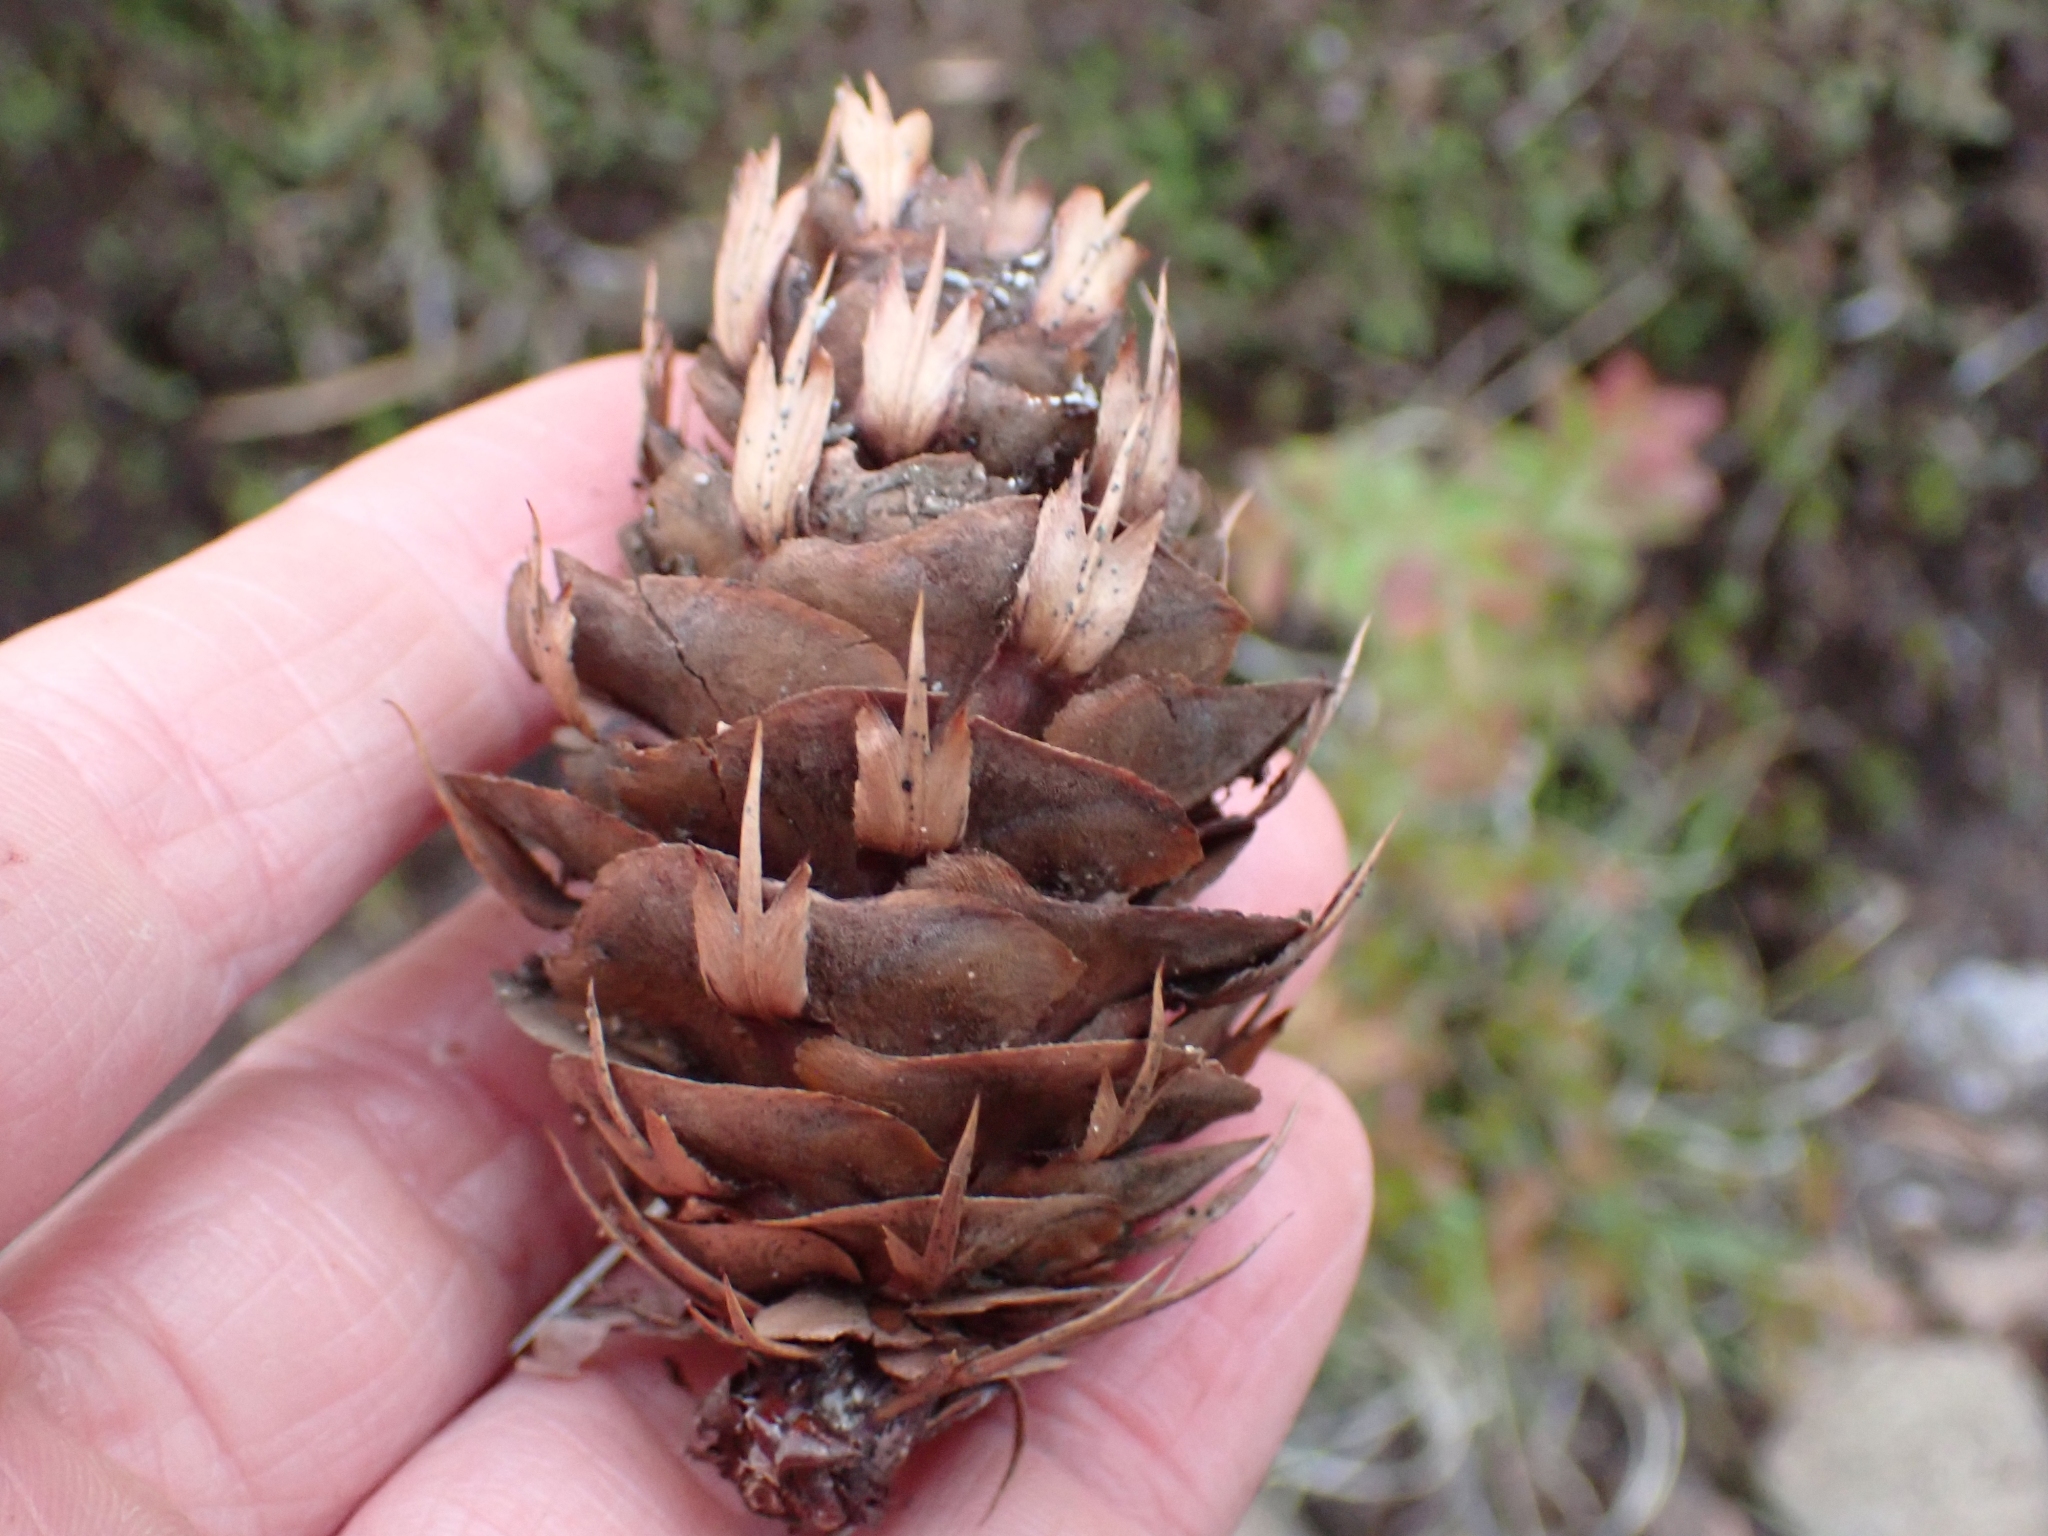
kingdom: Plantae
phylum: Tracheophyta
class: Pinopsida
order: Pinales
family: Pinaceae
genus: Pseudotsuga
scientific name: Pseudotsuga menziesii
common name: Douglas fir
